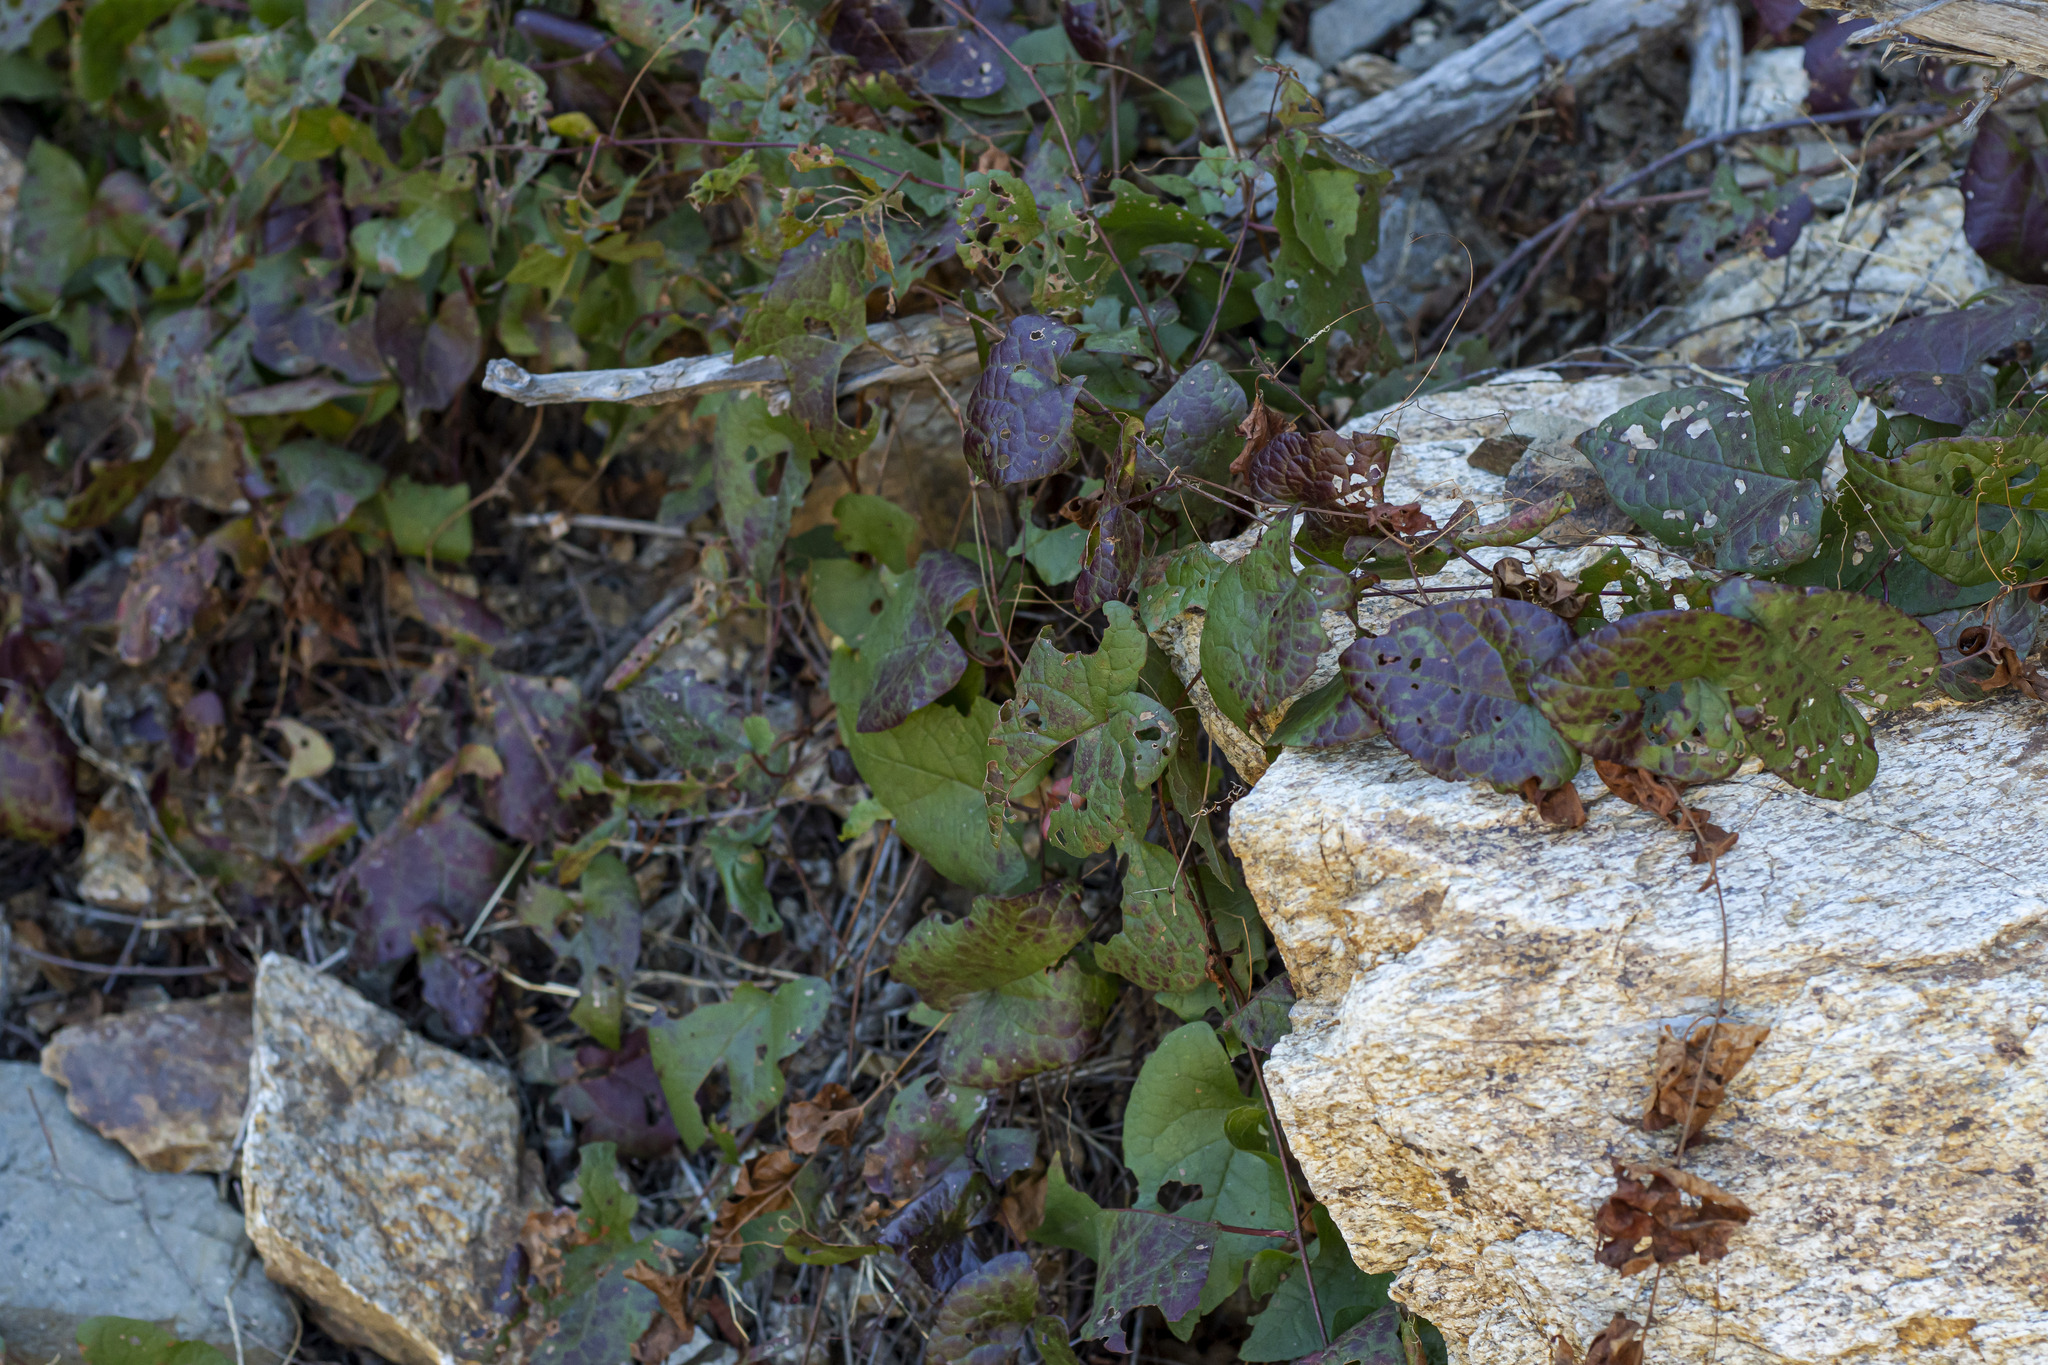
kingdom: Plantae
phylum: Tracheophyta
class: Magnoliopsida
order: Caryophyllales
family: Polygonaceae
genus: Antigonon
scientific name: Antigonon leptopus
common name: Coral vine
